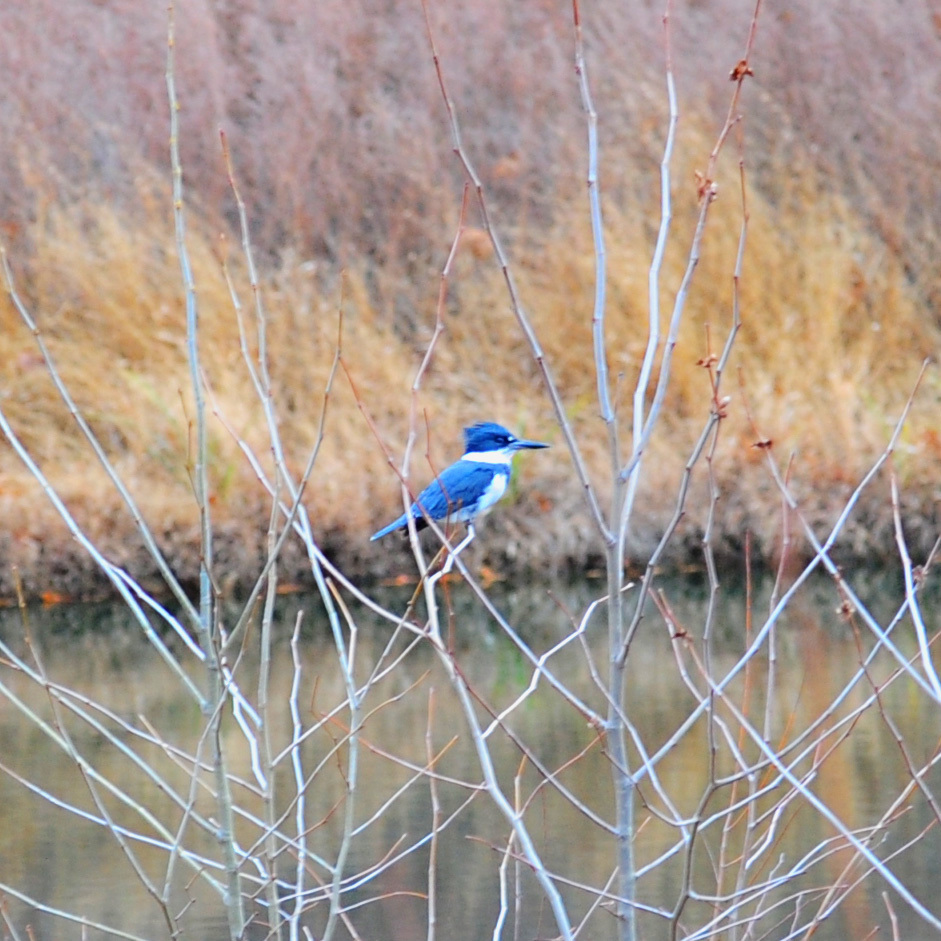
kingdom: Animalia
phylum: Chordata
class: Aves
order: Coraciiformes
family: Alcedinidae
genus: Megaceryle
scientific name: Megaceryle alcyon
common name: Belted kingfisher
